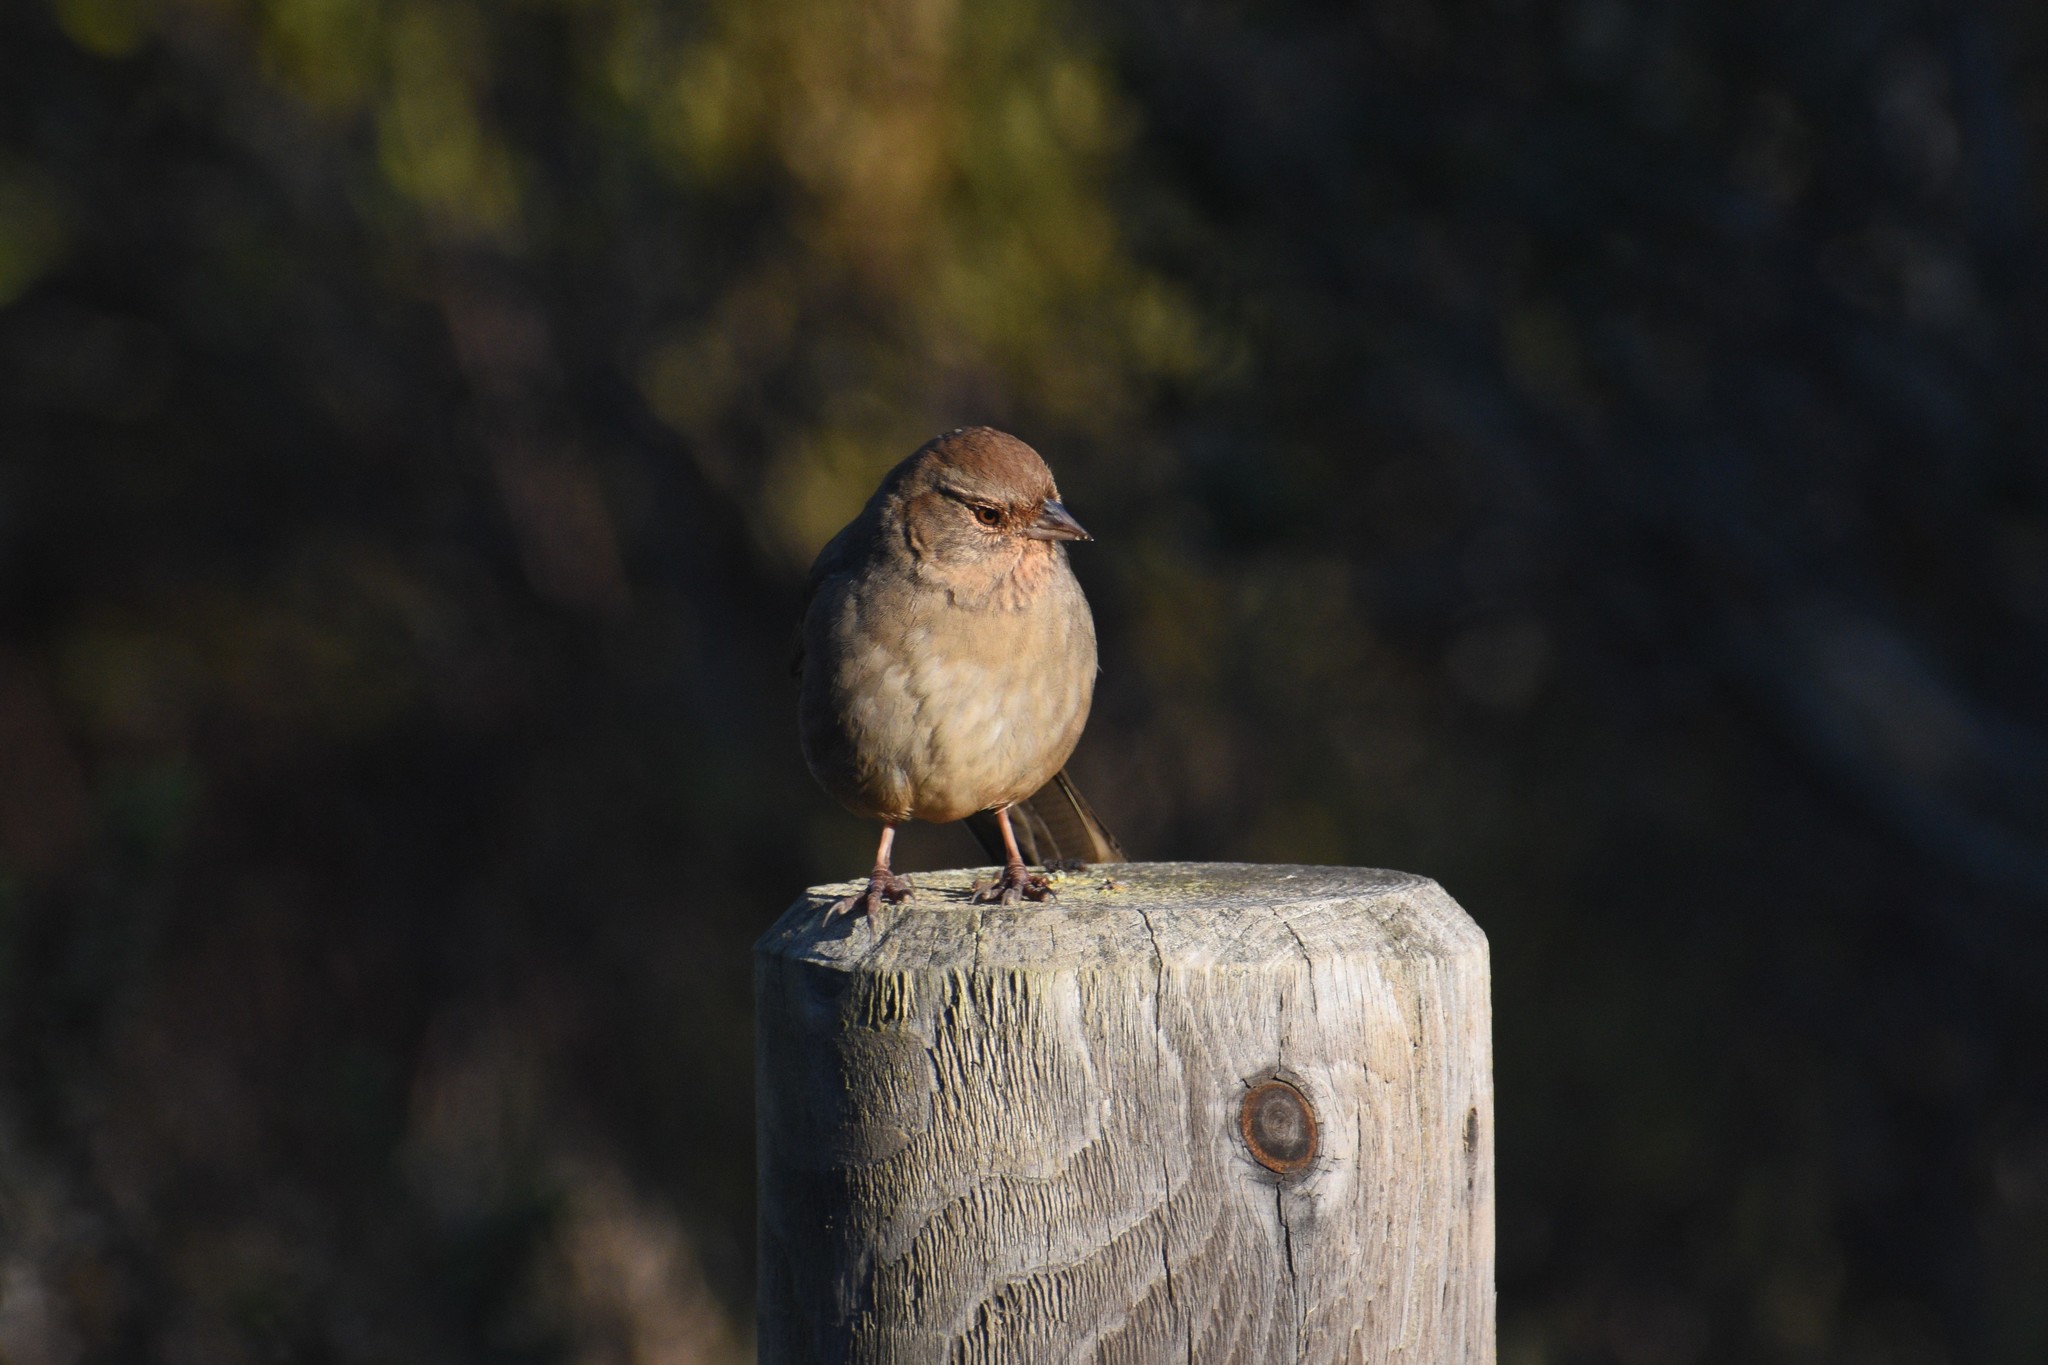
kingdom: Animalia
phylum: Chordata
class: Aves
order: Passeriformes
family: Passerellidae
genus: Melozone
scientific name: Melozone crissalis
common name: California towhee
